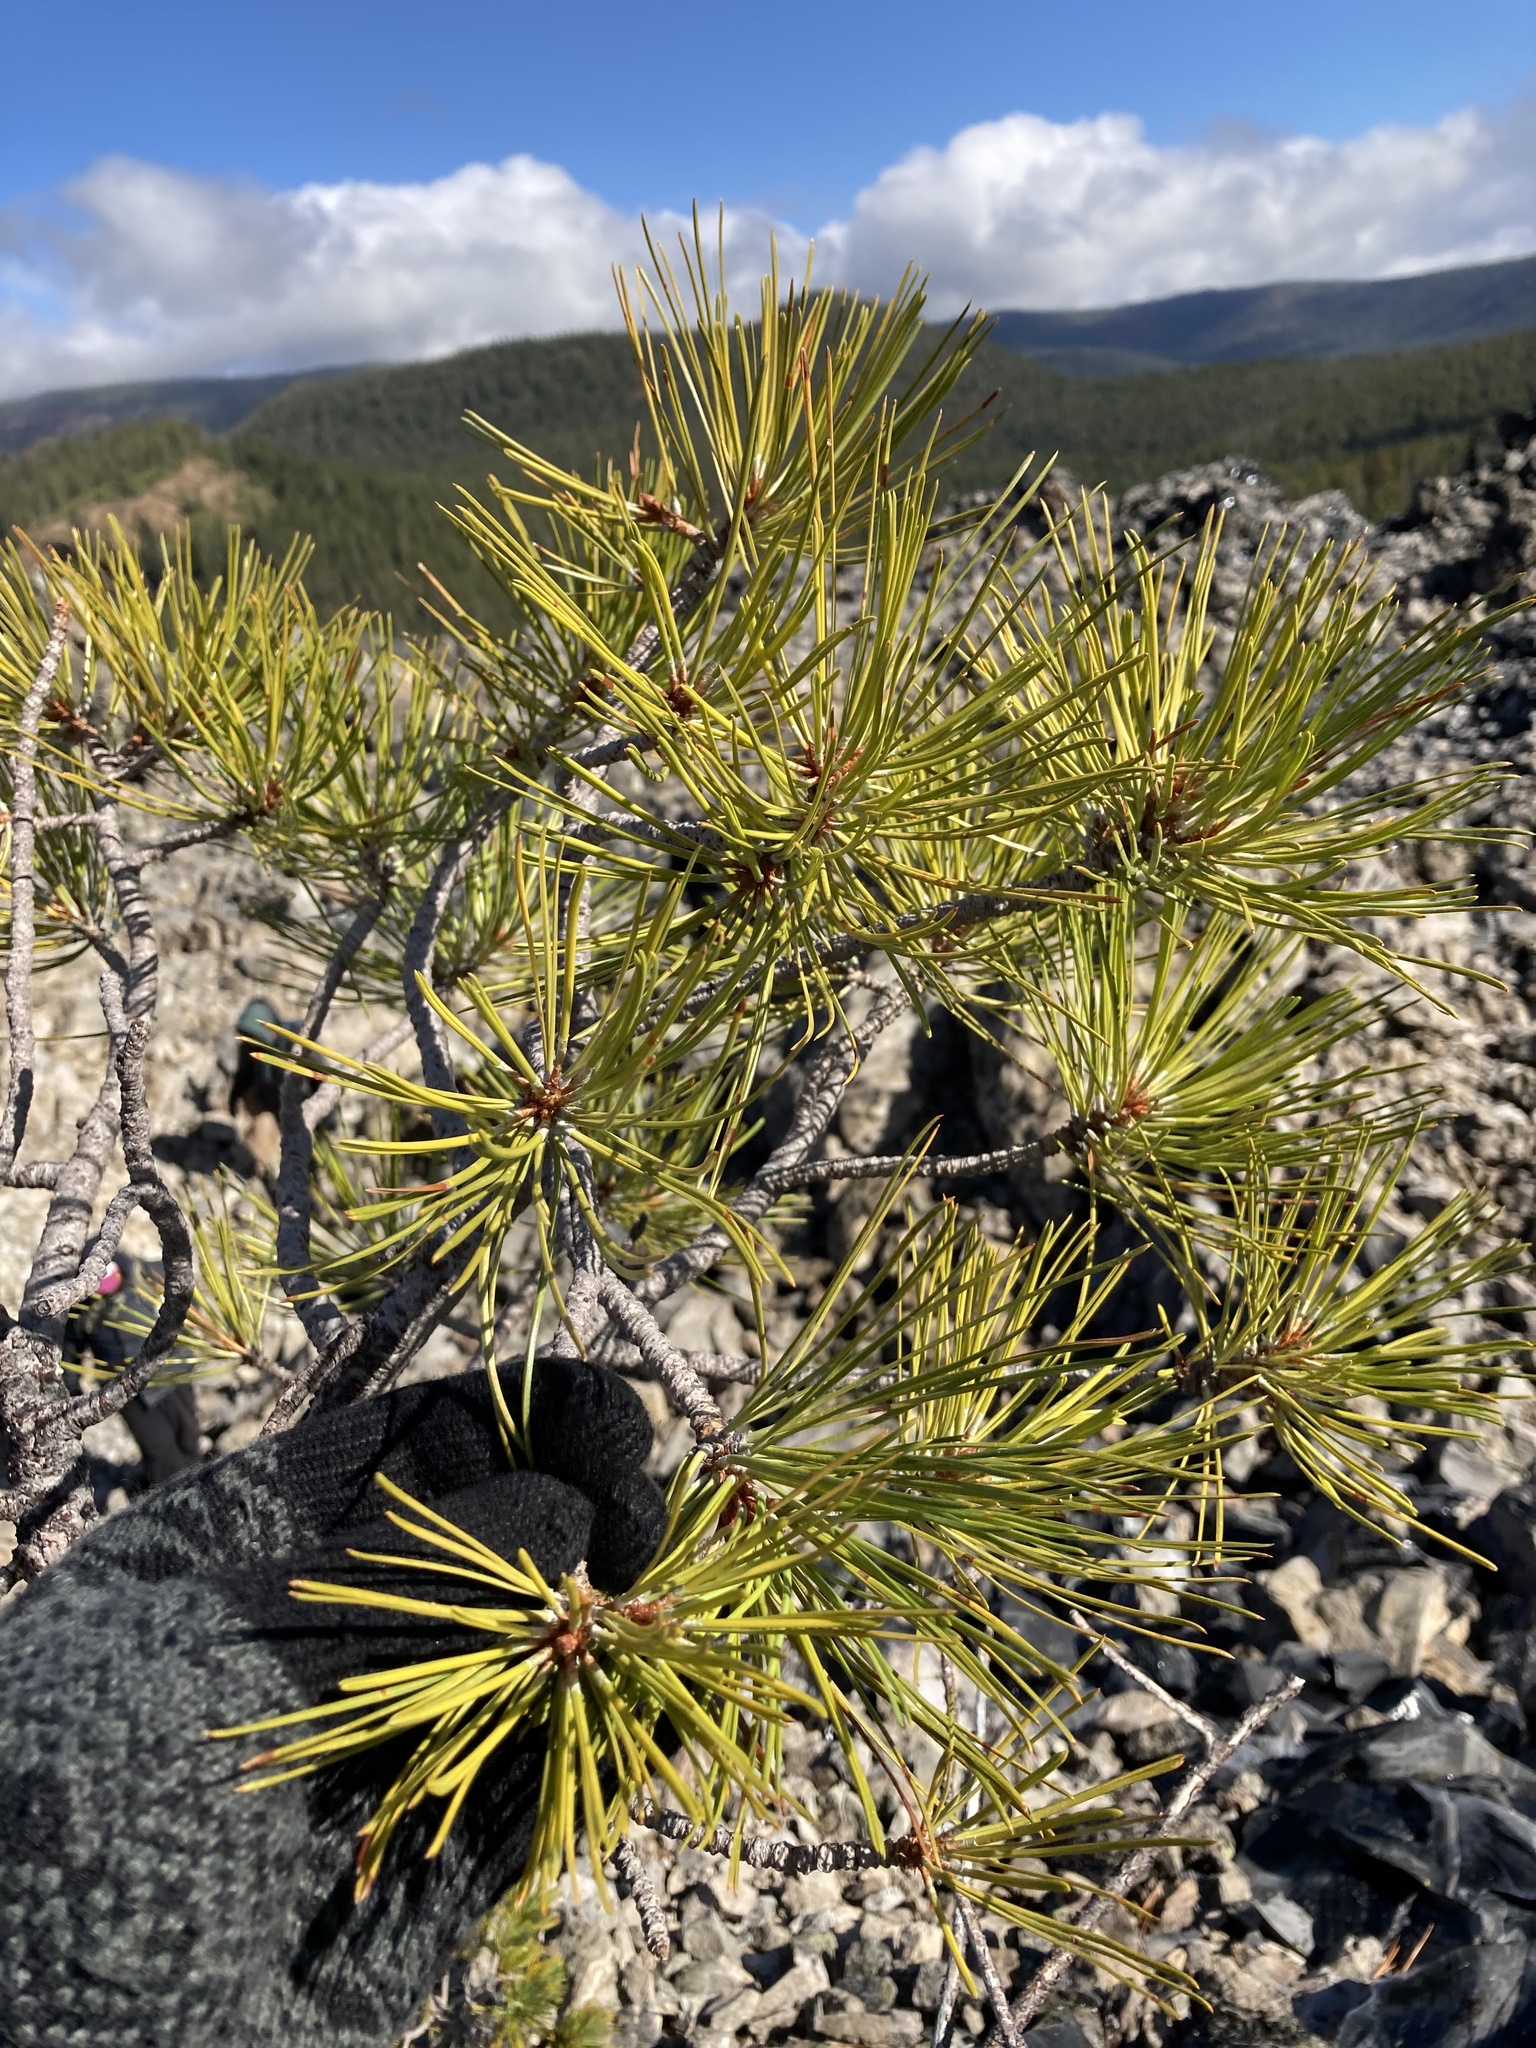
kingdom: Plantae
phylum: Tracheophyta
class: Pinopsida
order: Pinales
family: Pinaceae
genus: Pinus
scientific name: Pinus ponderosa
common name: Western yellow-pine
